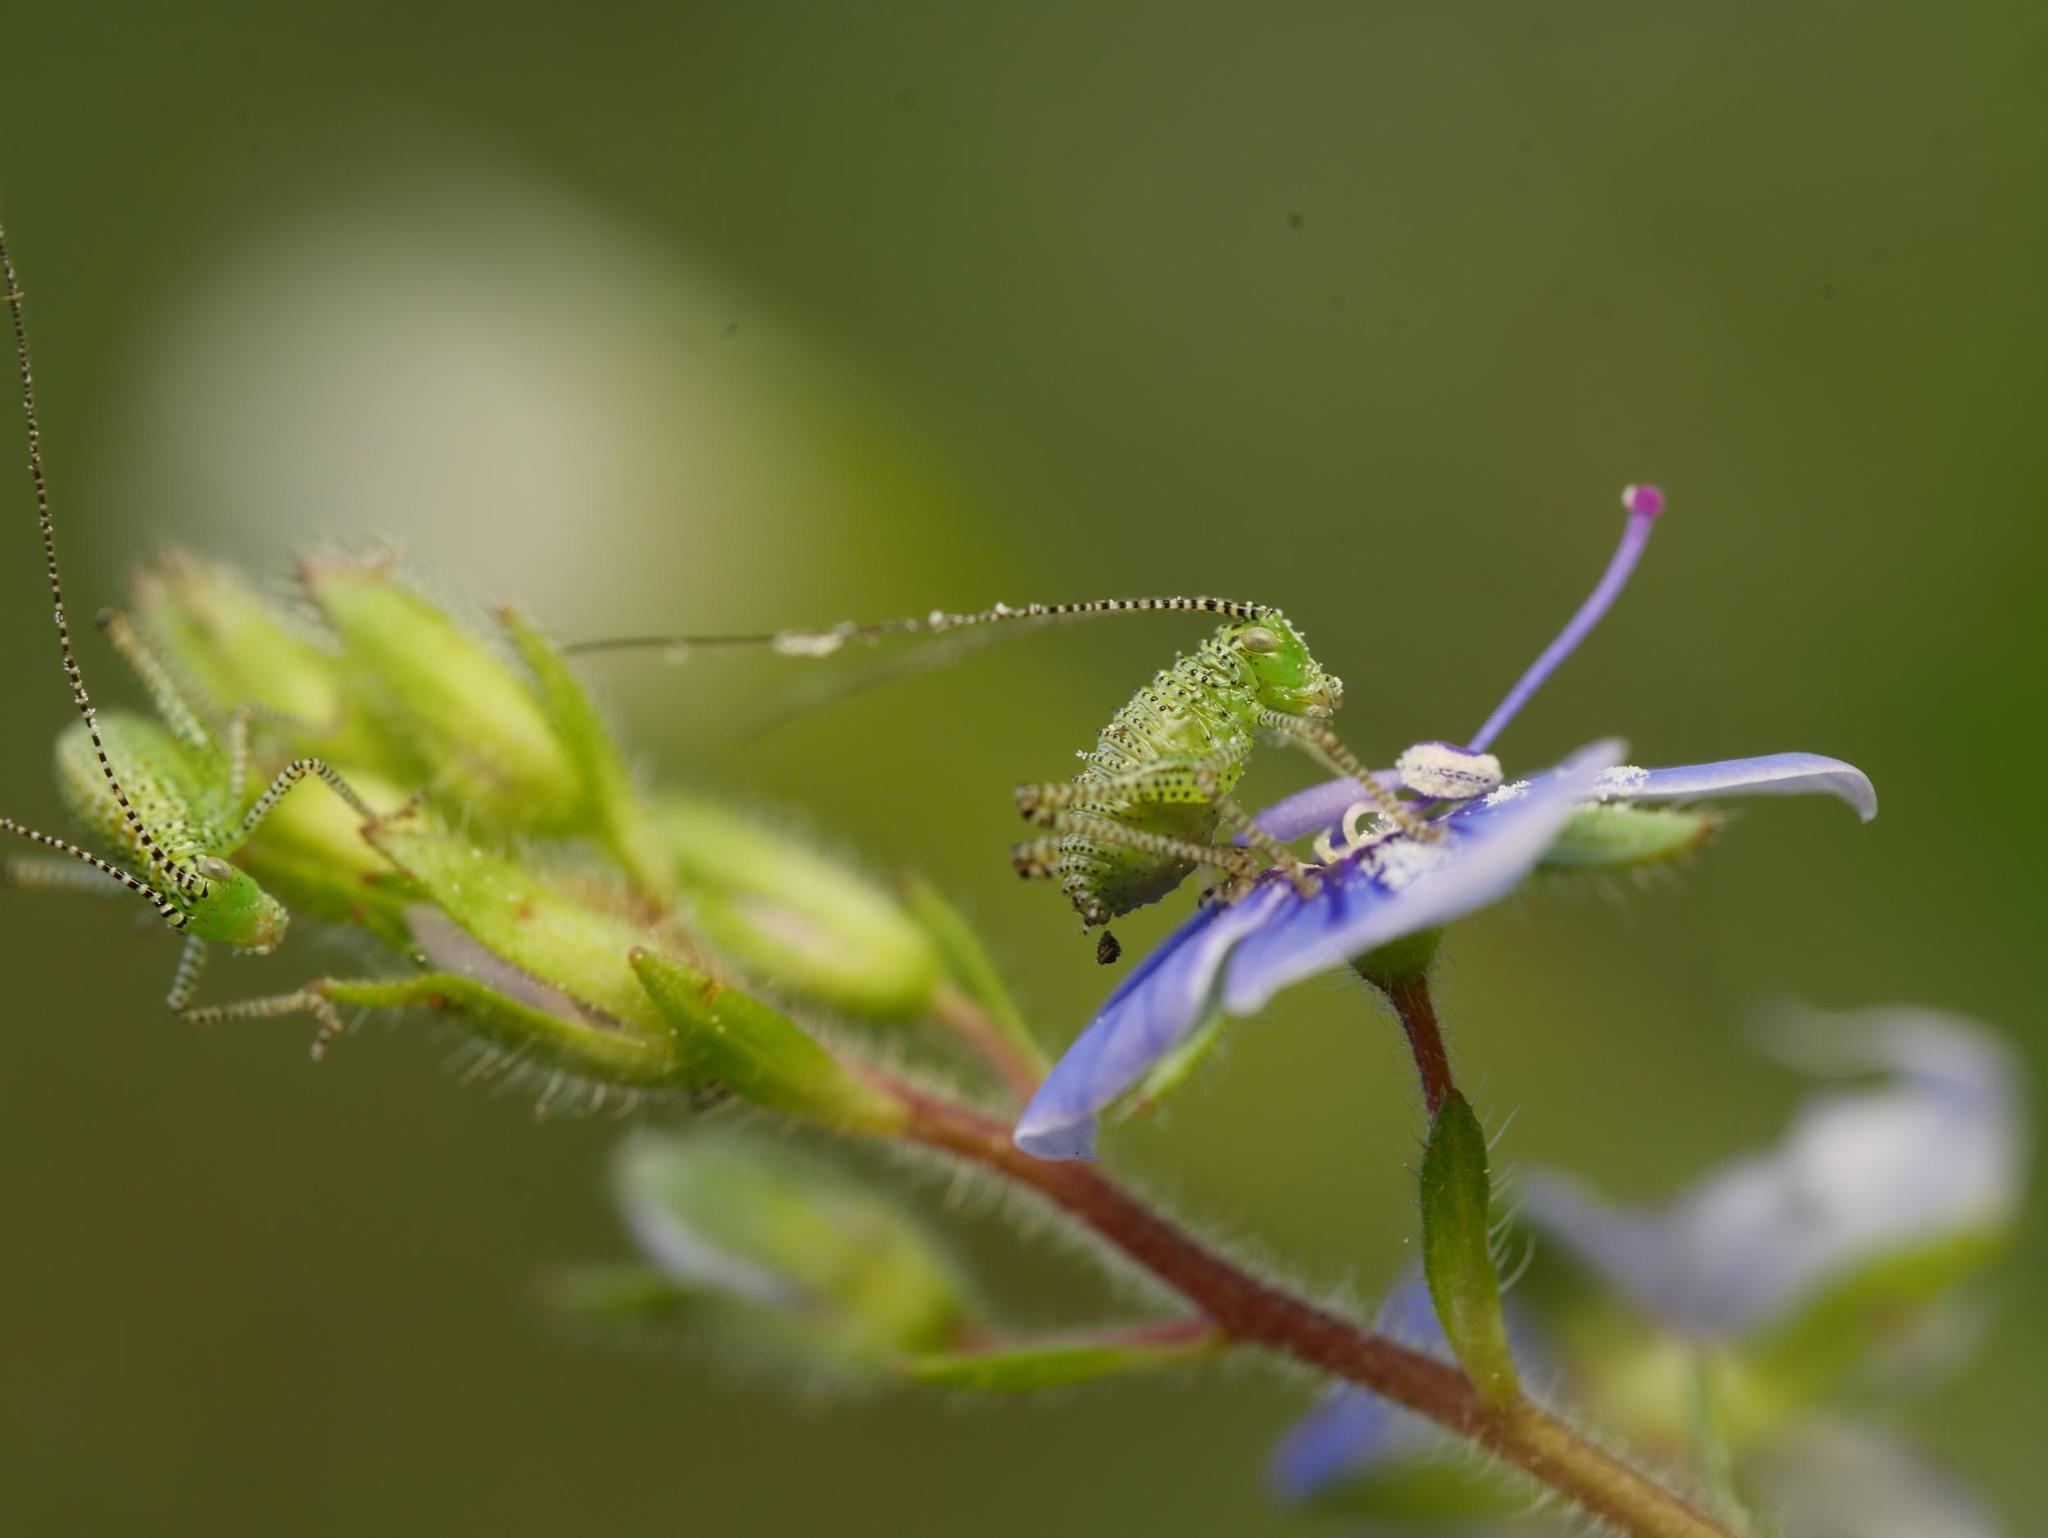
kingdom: Animalia
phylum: Arthropoda
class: Insecta
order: Orthoptera
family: Tettigoniidae
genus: Leptophyes
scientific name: Leptophyes punctatissima
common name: Speckled bush-cricket
